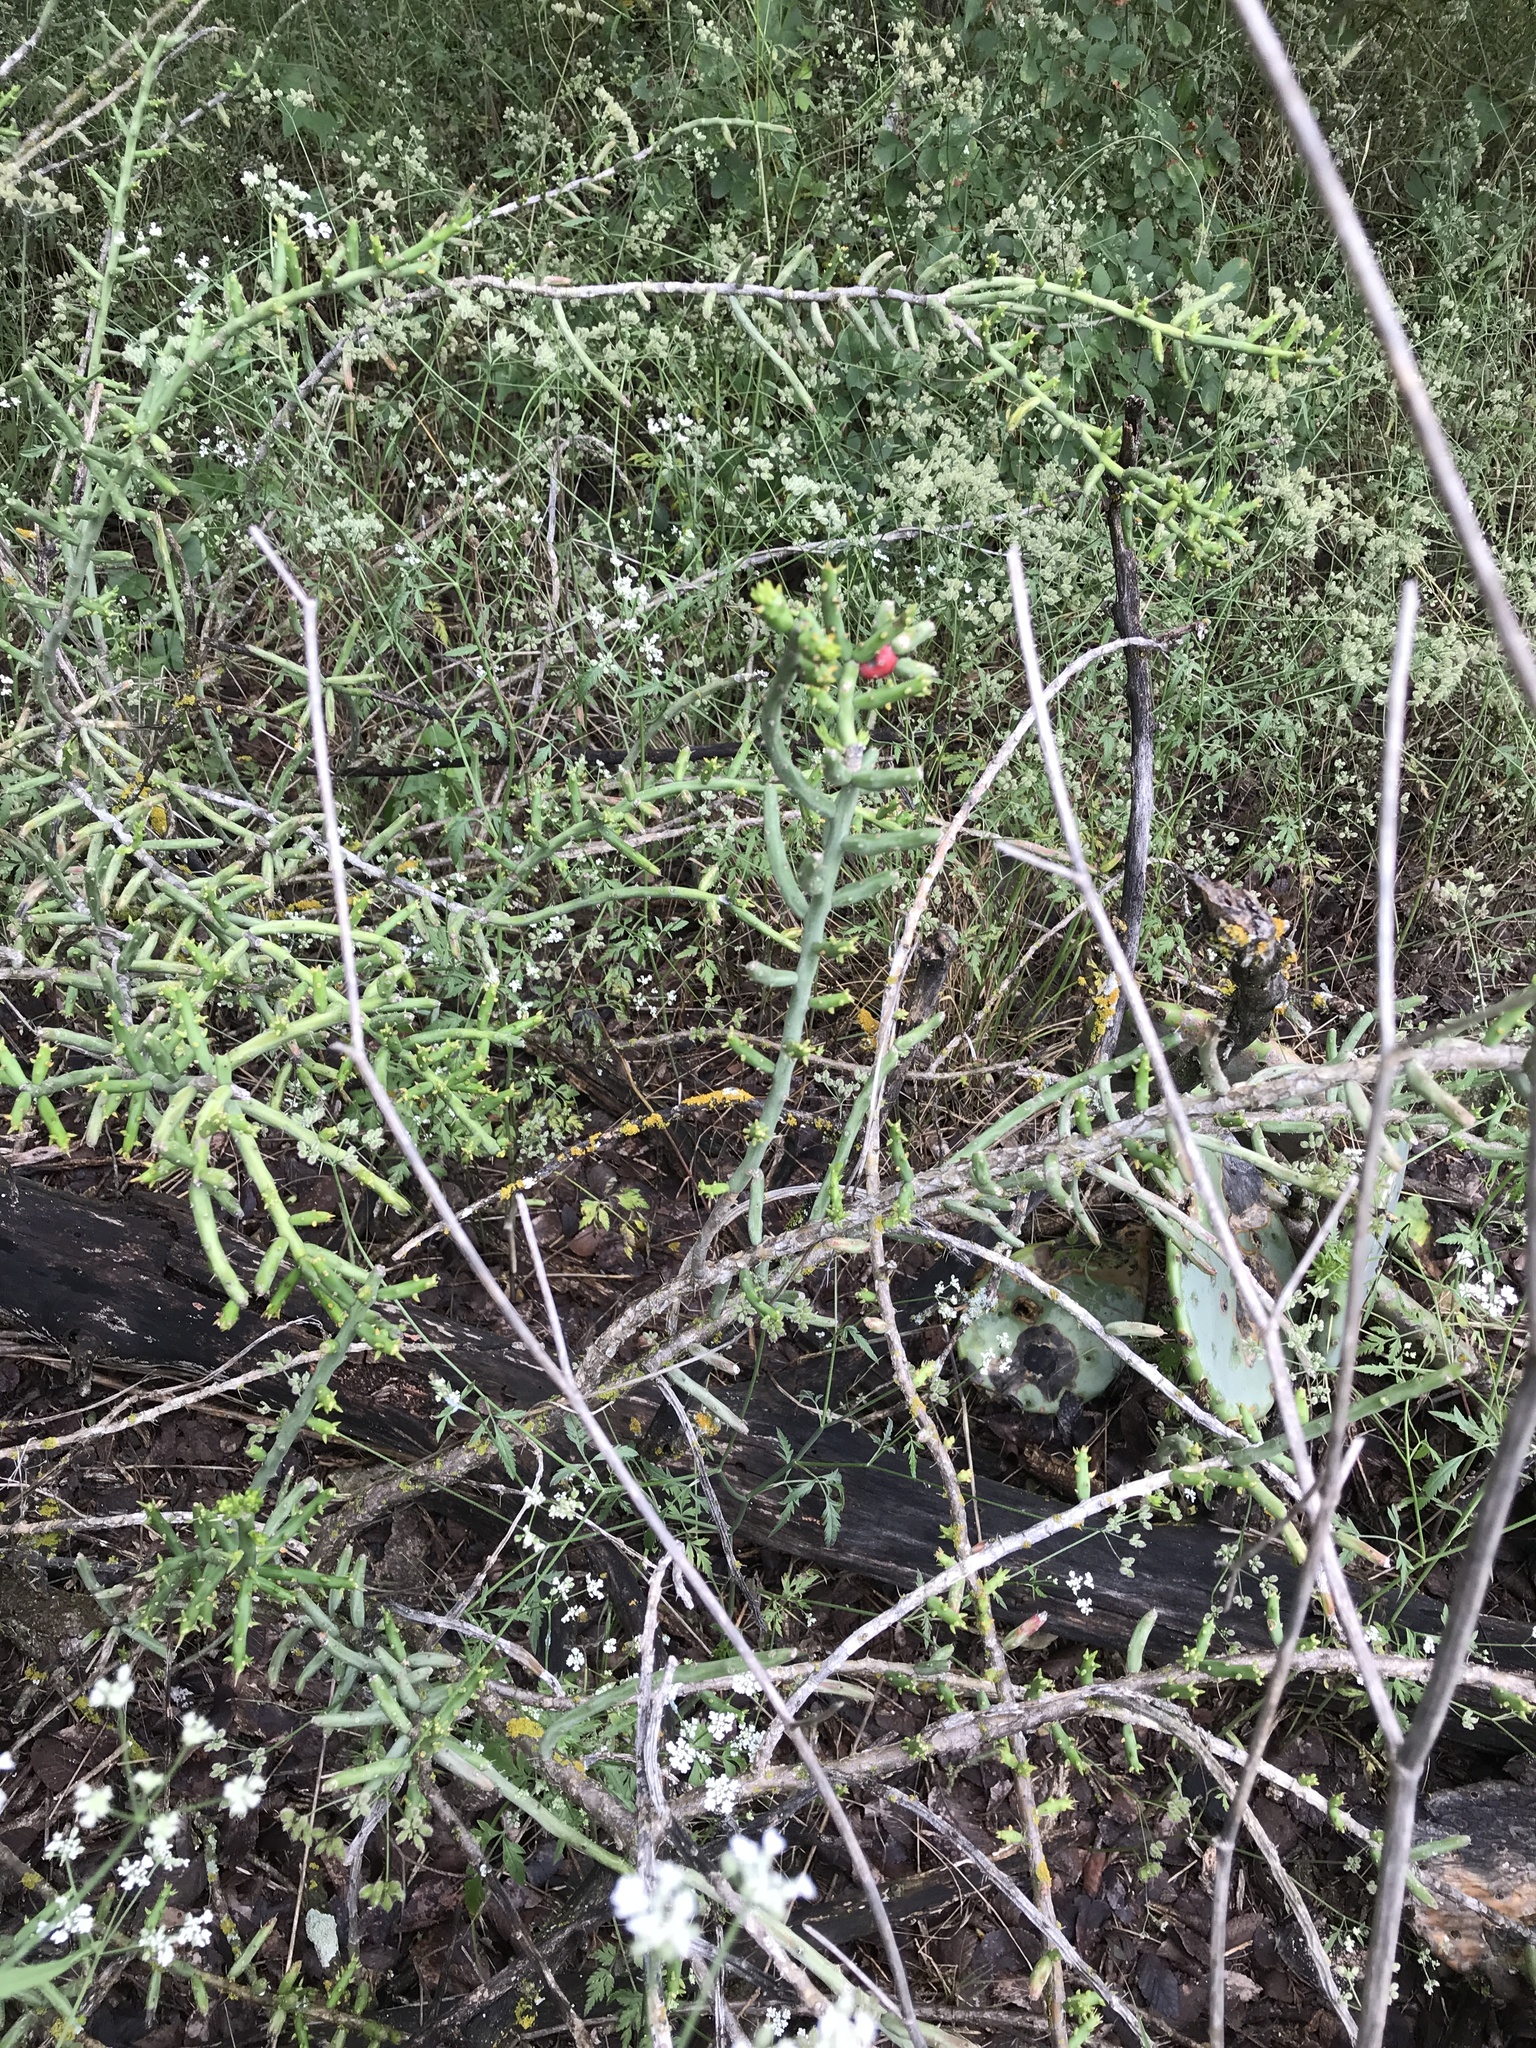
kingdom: Plantae
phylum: Tracheophyta
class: Magnoliopsida
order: Caryophyllales
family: Cactaceae
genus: Cylindropuntia
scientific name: Cylindropuntia leptocaulis
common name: Christmas cactus
